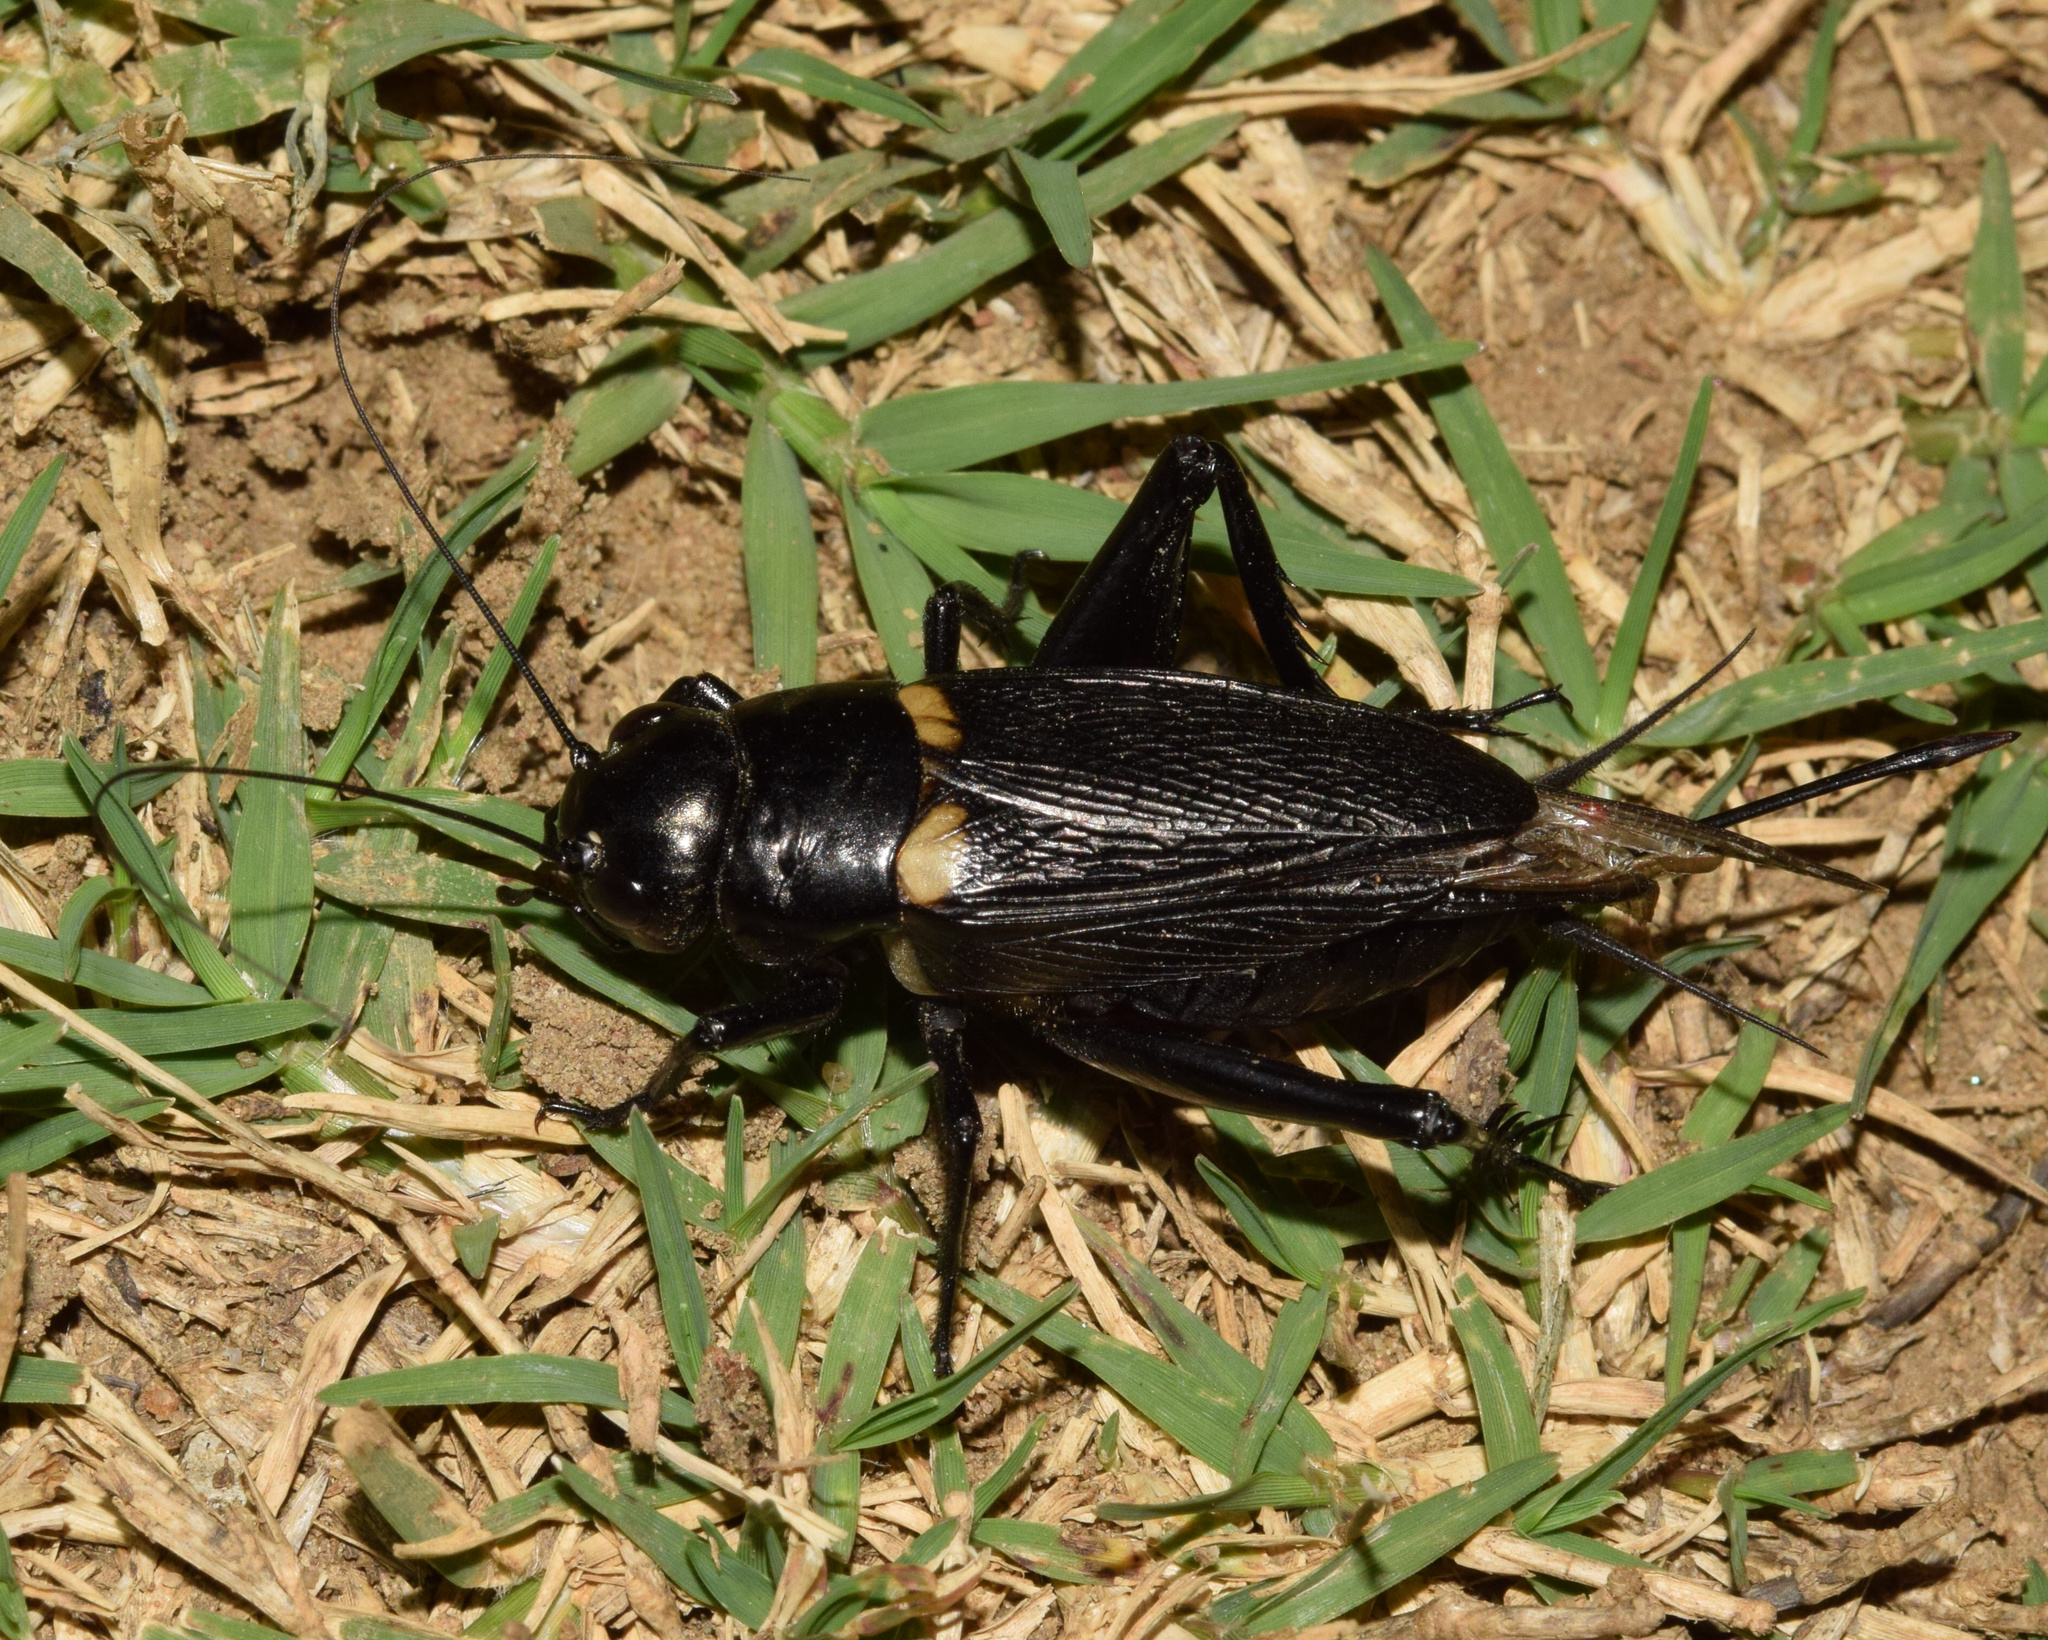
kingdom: Animalia
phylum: Arthropoda
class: Insecta
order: Orthoptera
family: Gryllidae
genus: Gryllus
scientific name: Gryllus bimaculatus
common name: Two-spotted cricket
